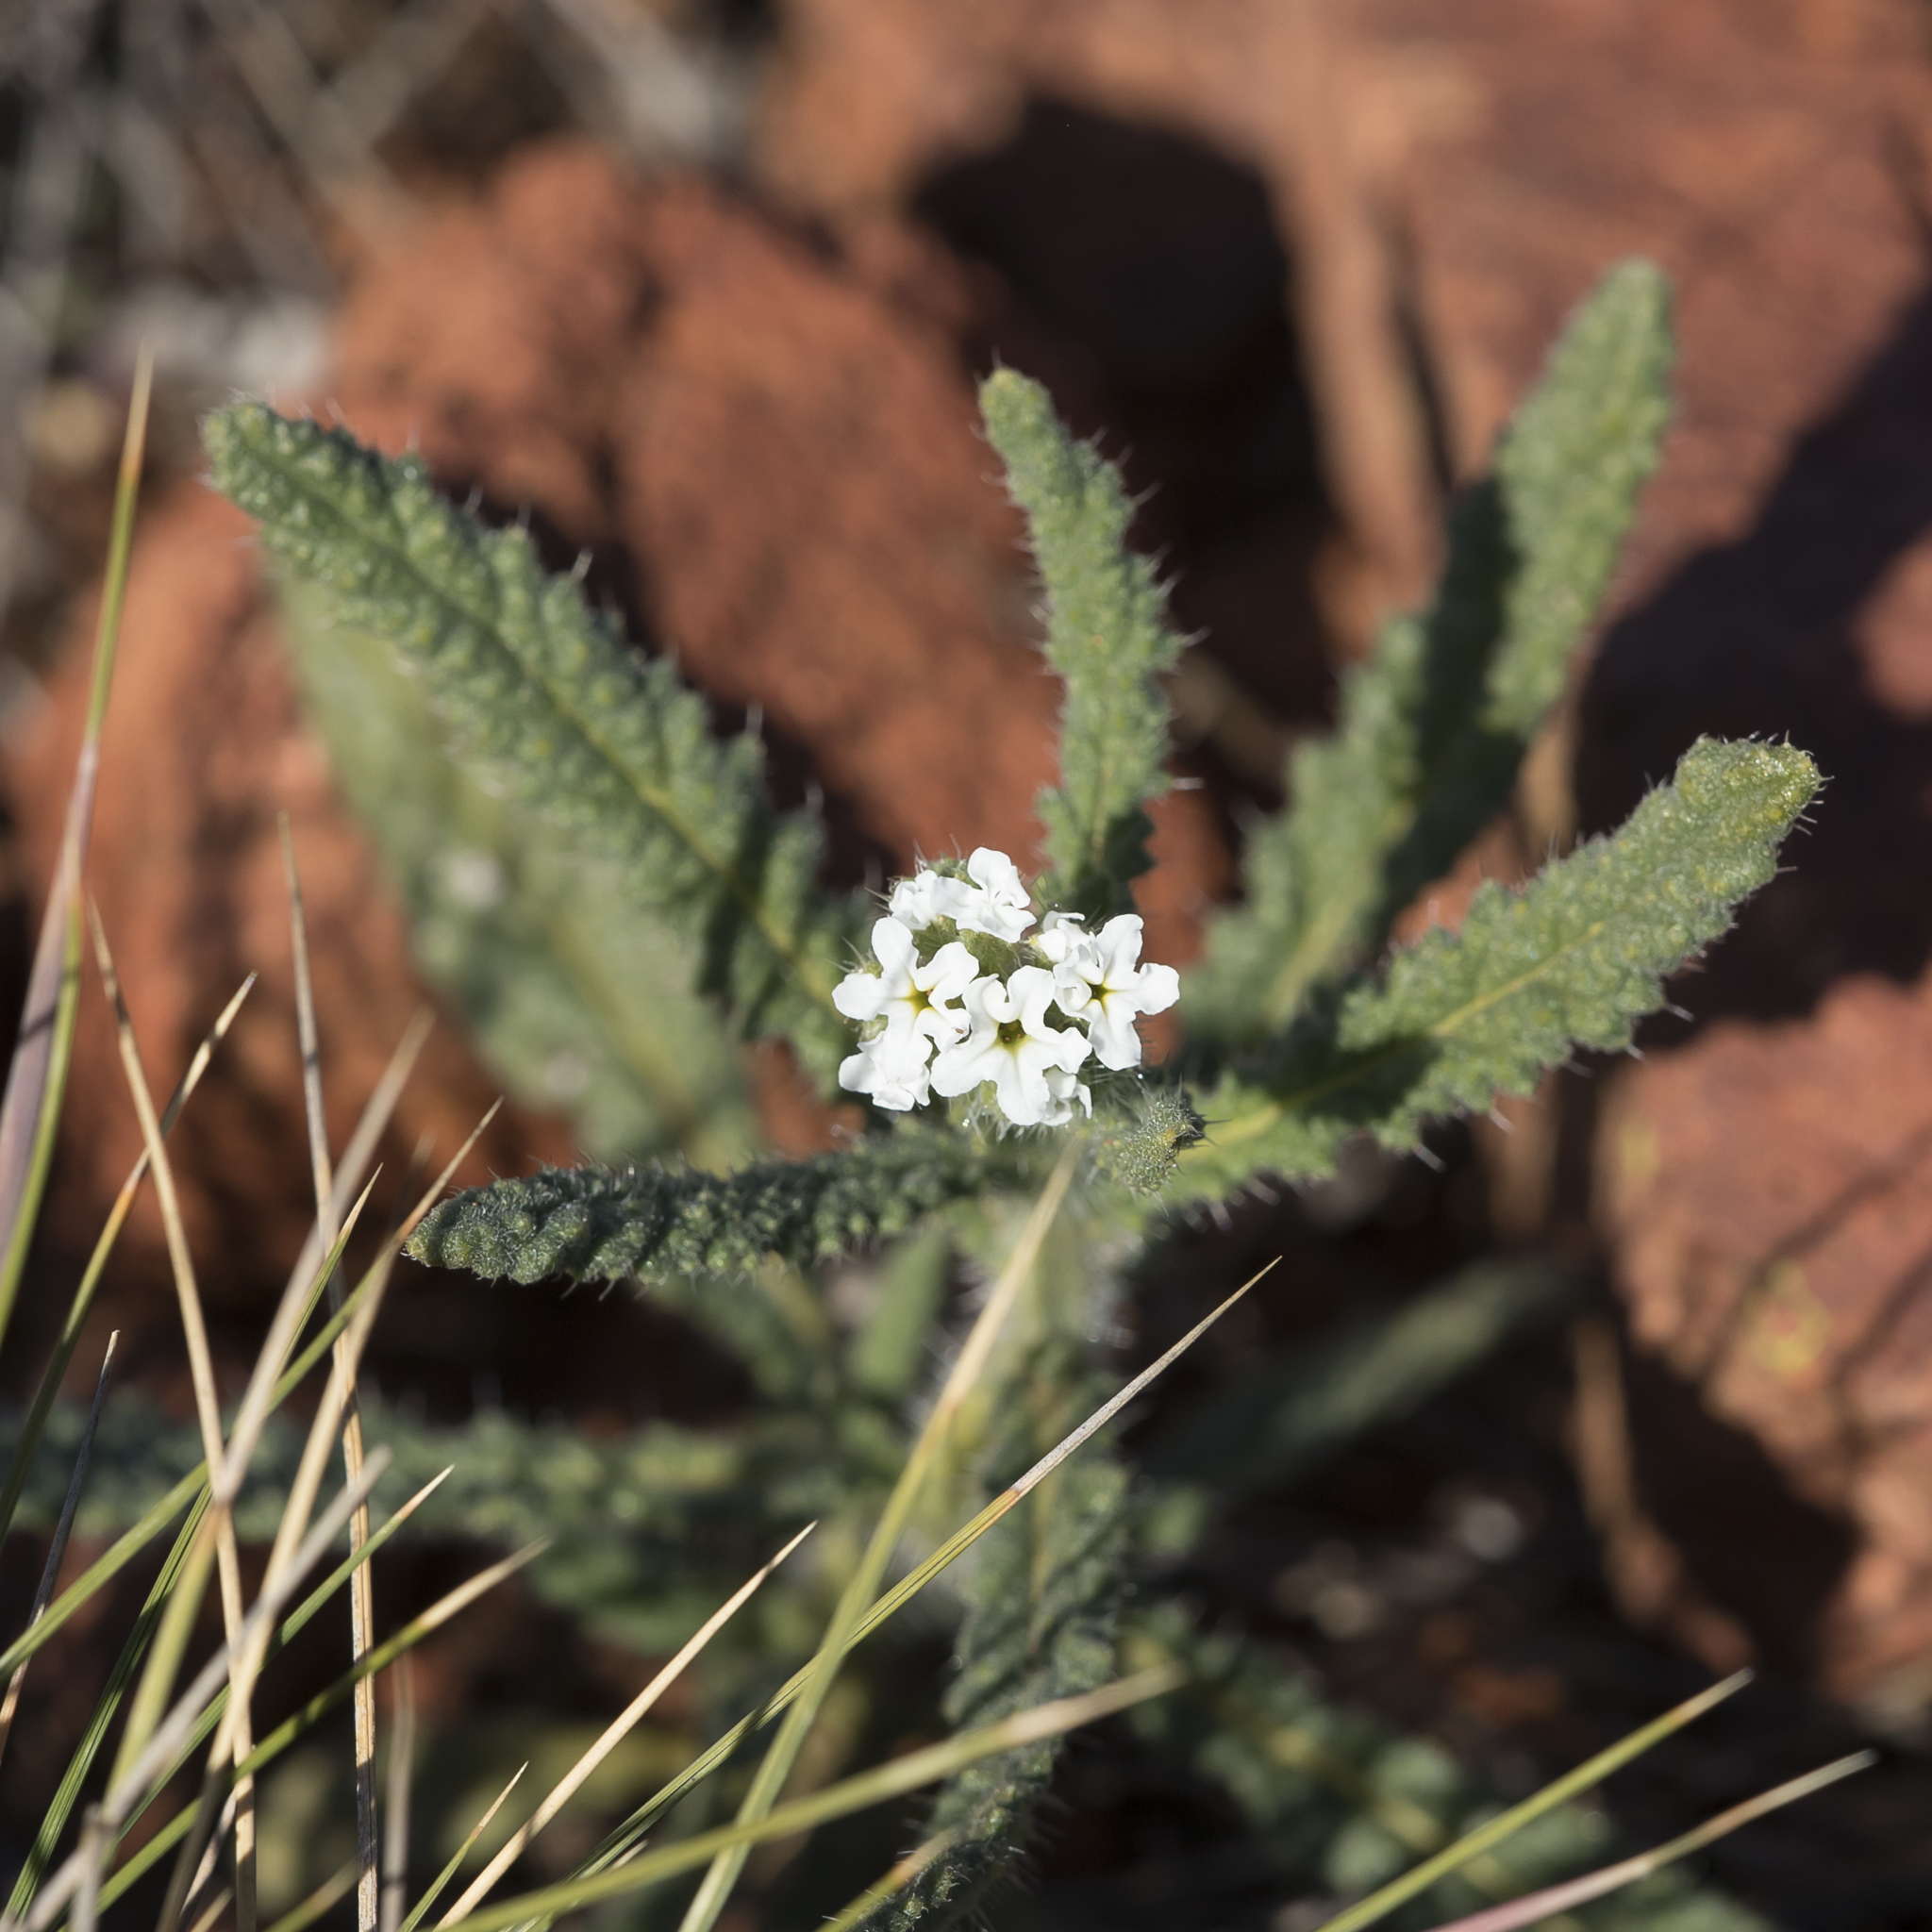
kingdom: Plantae
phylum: Tracheophyta
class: Magnoliopsida
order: Boraginales
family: Heliotropiaceae
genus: Heliotropium
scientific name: Heliotropium asperrimum
